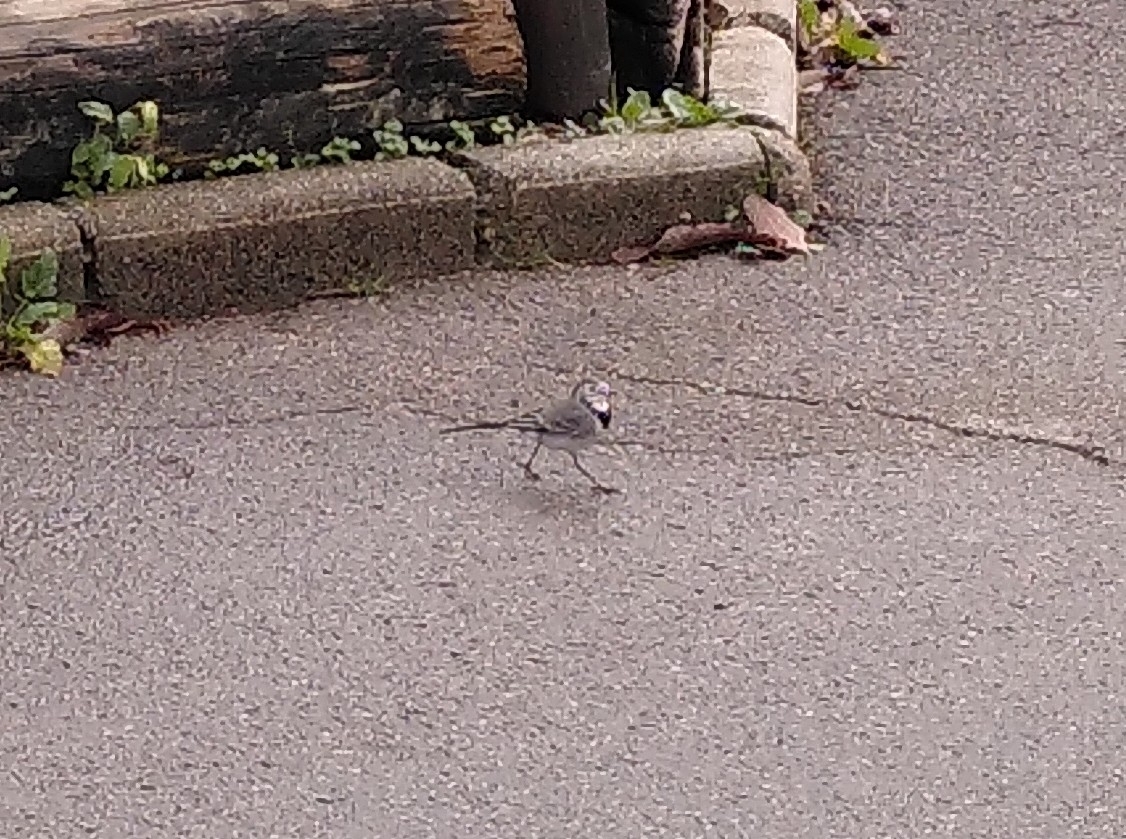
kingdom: Animalia
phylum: Chordata
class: Aves
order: Passeriformes
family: Motacillidae
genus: Motacilla
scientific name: Motacilla alba
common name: White wagtail
